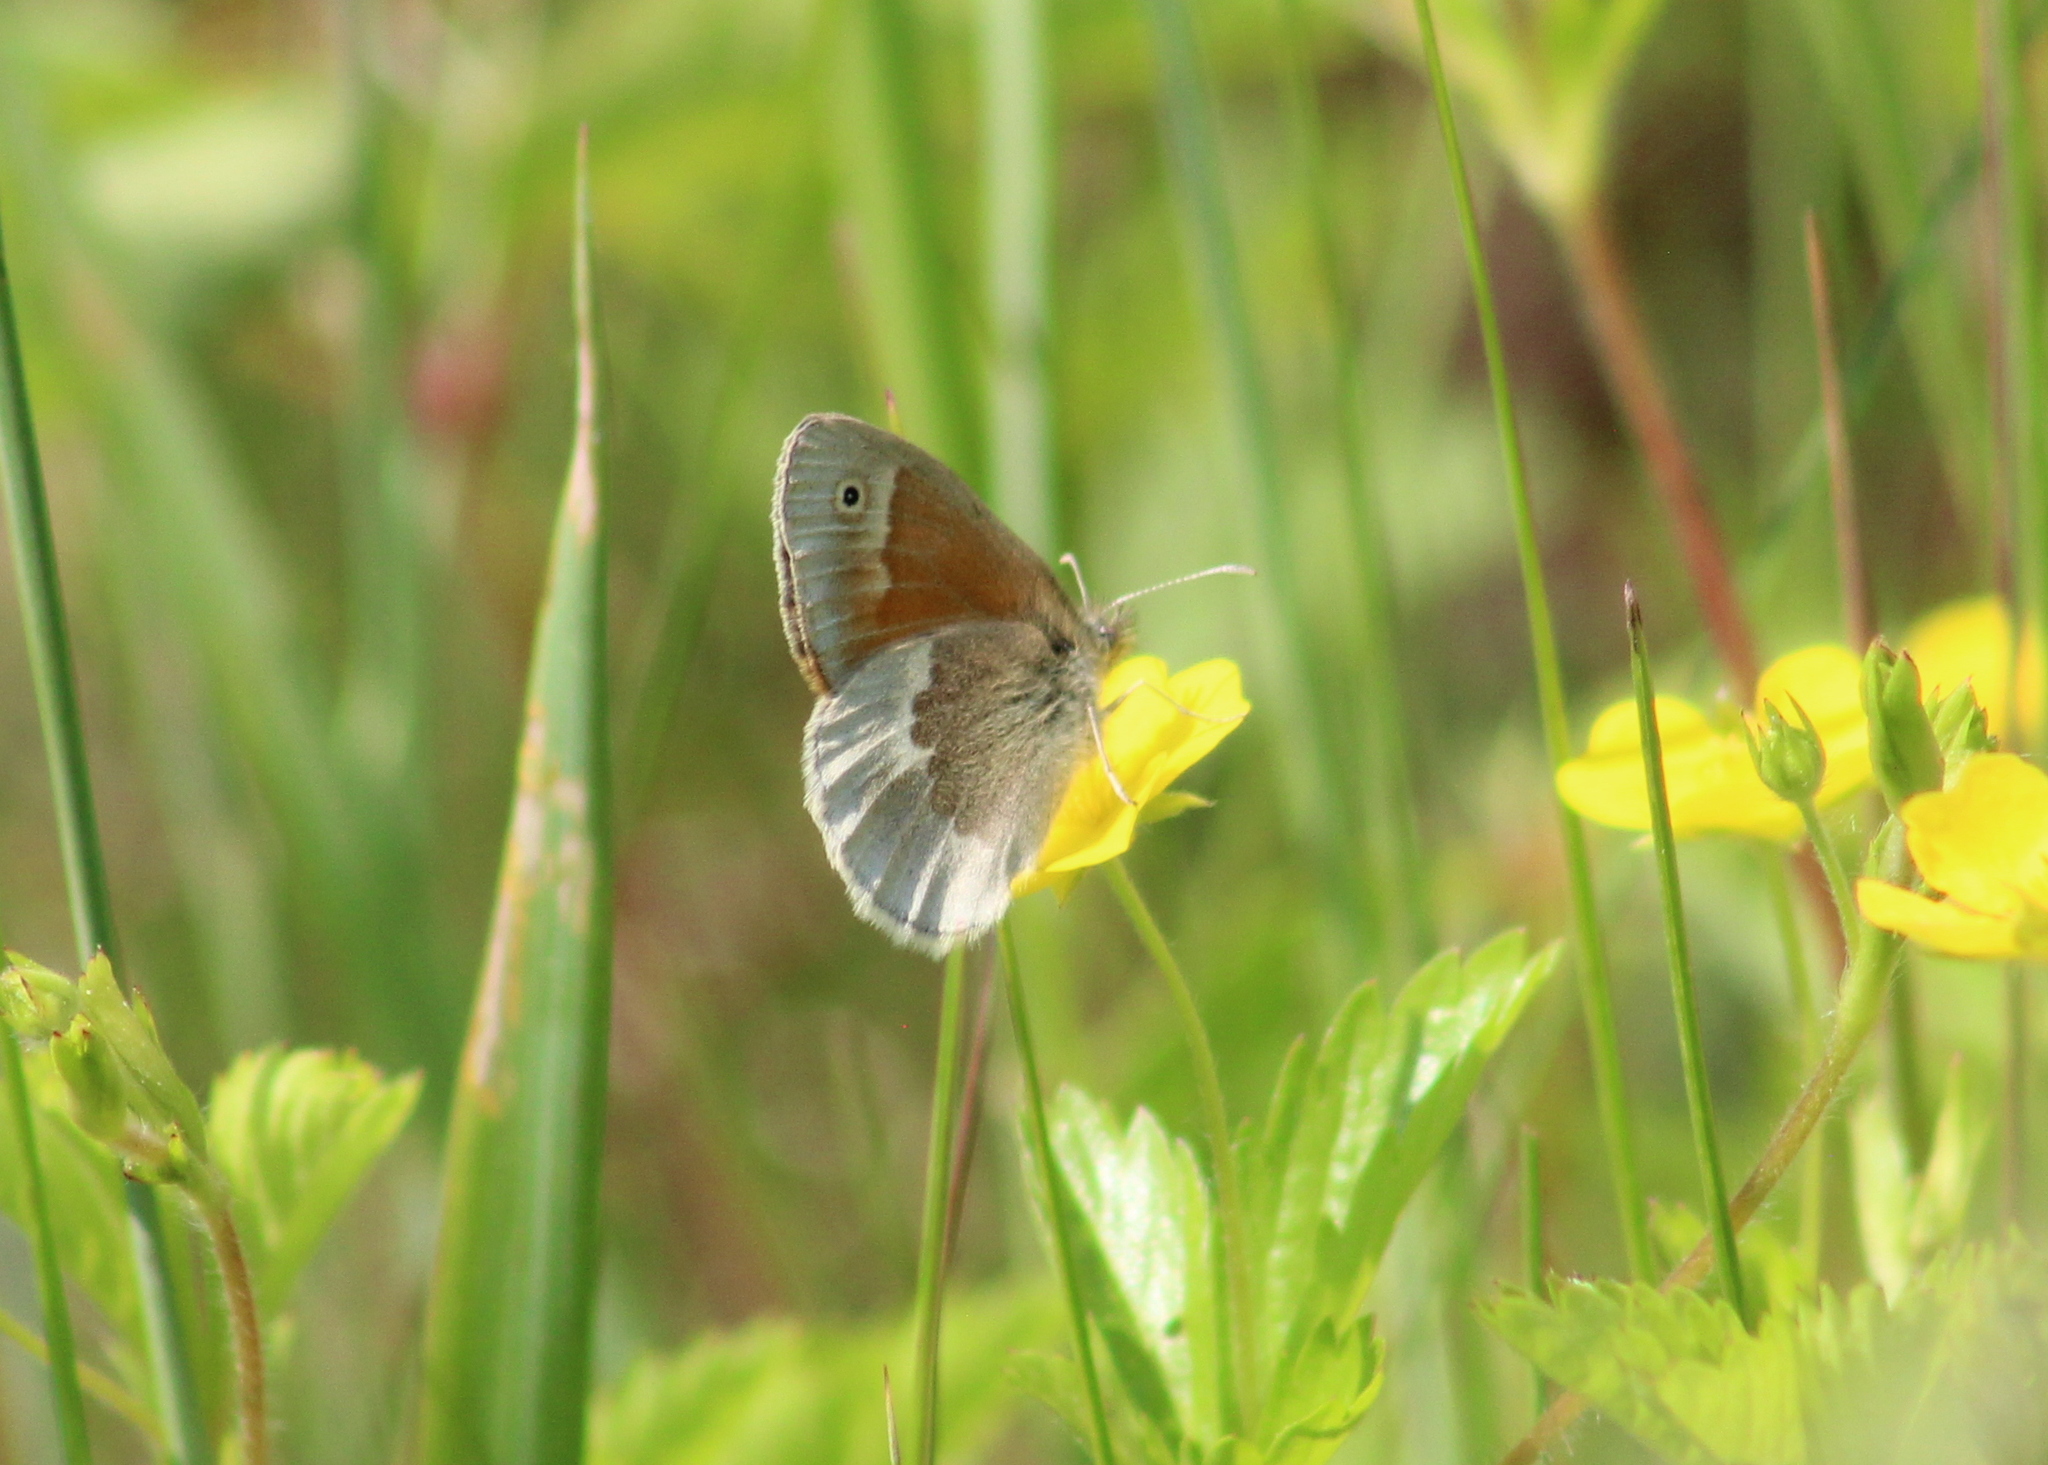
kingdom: Animalia
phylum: Arthropoda
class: Insecta
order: Lepidoptera
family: Nymphalidae
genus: Coenonympha
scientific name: Coenonympha california
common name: Common ringlet
